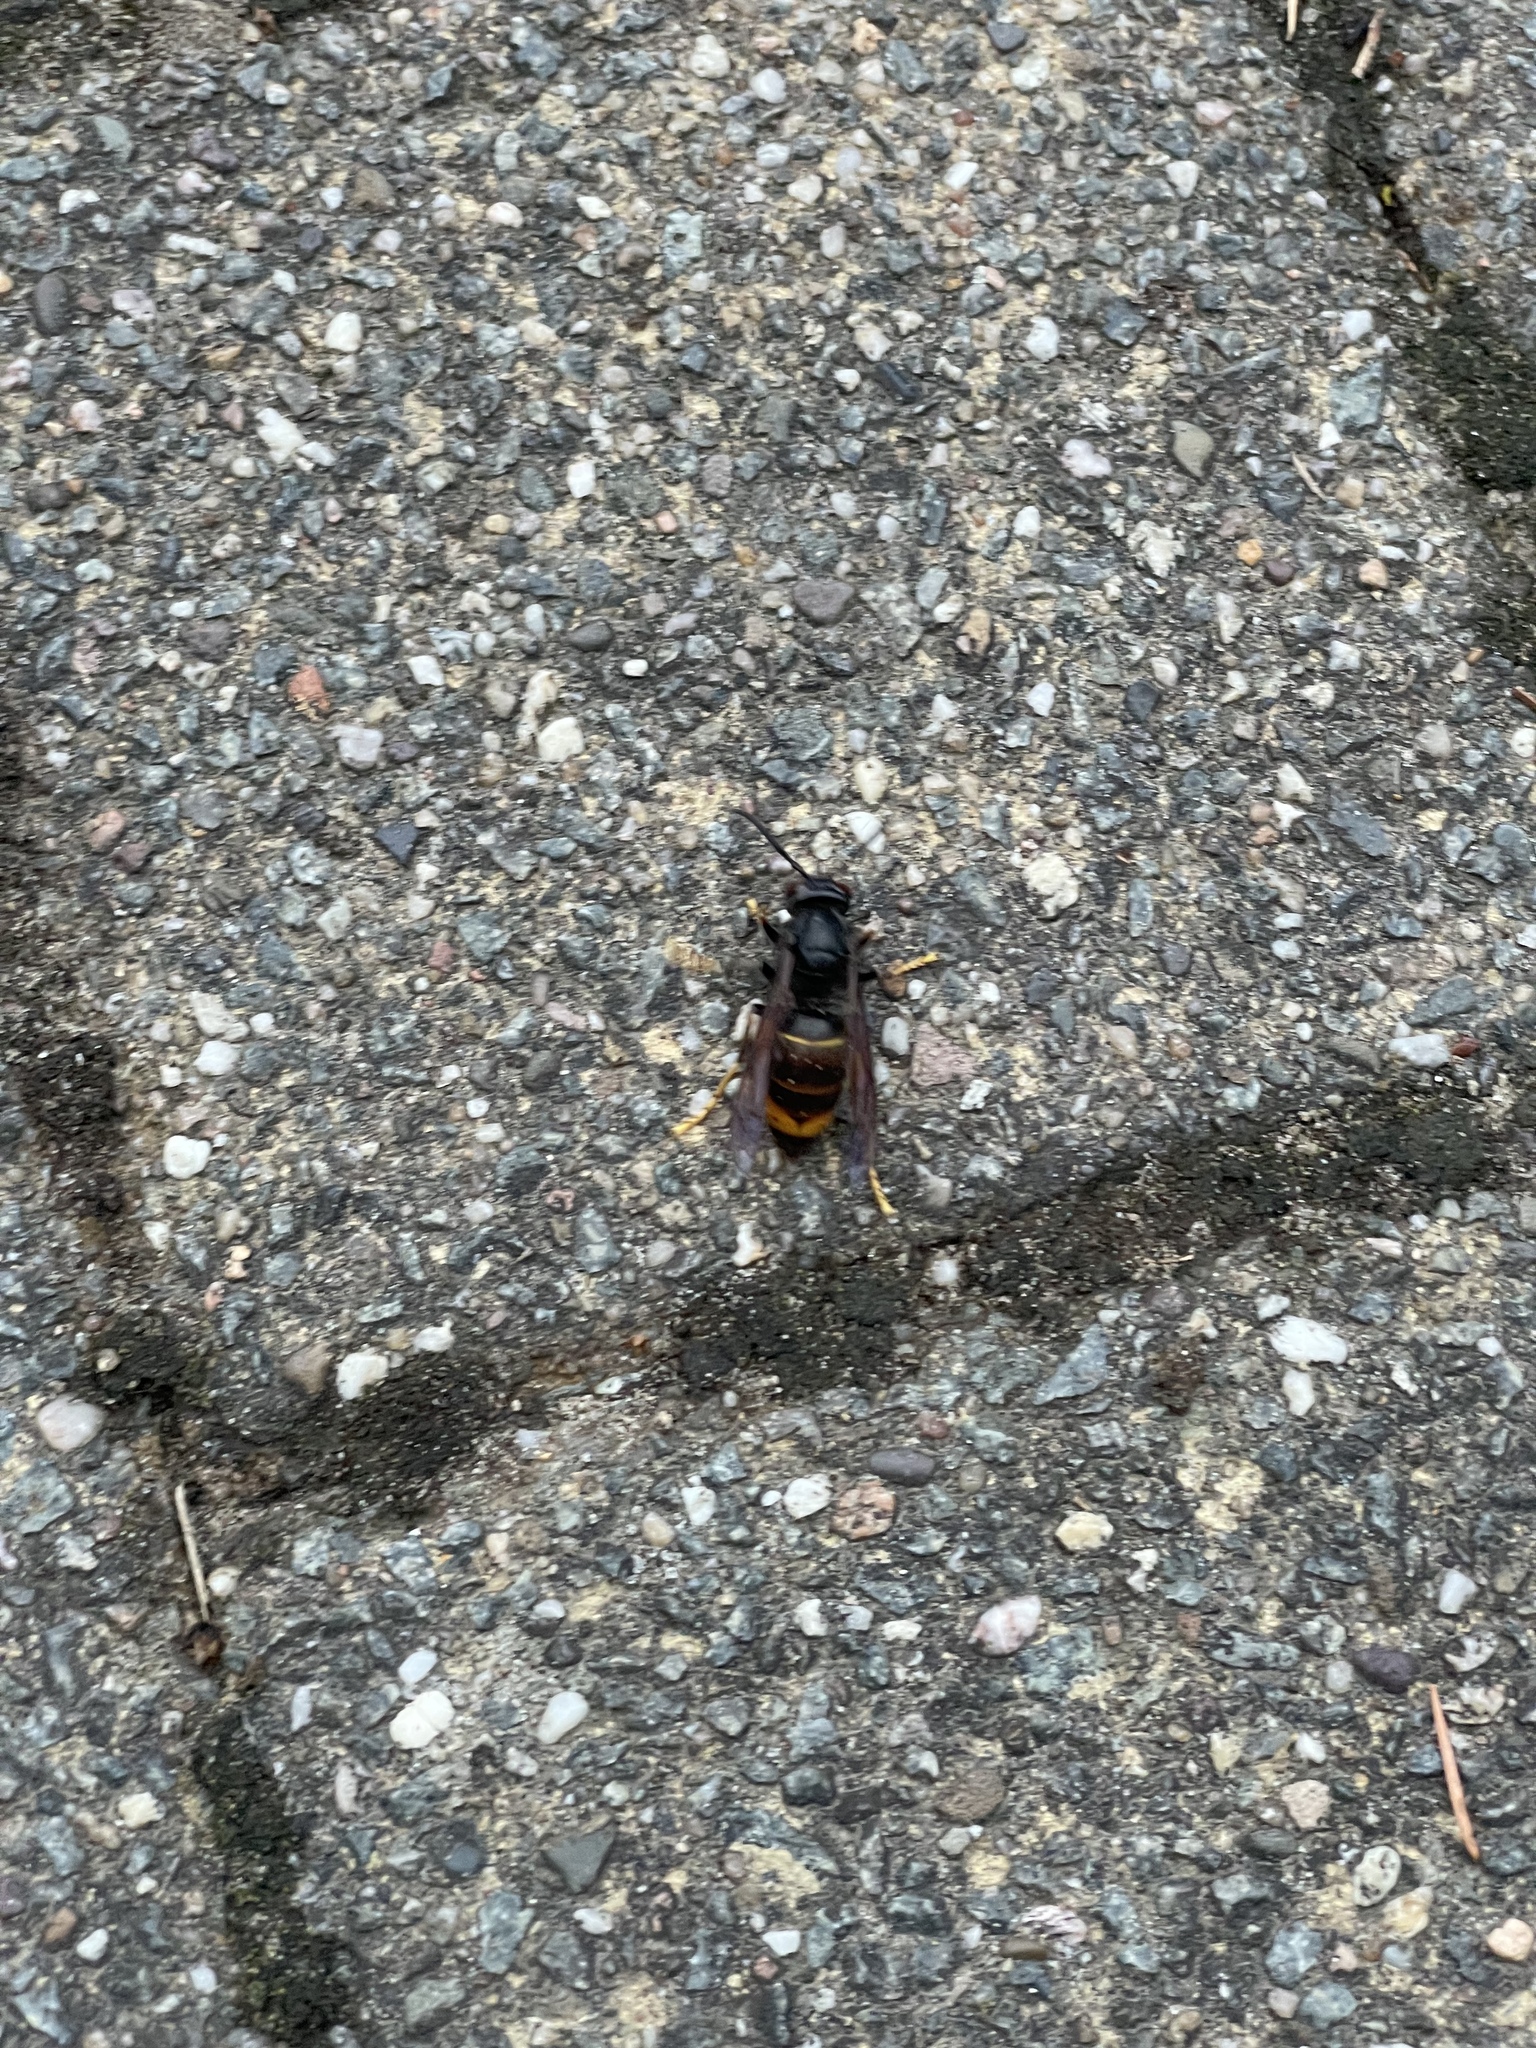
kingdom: Animalia
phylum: Arthropoda
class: Insecta
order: Hymenoptera
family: Vespidae
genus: Vespa
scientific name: Vespa velutina
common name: Asian hornet
